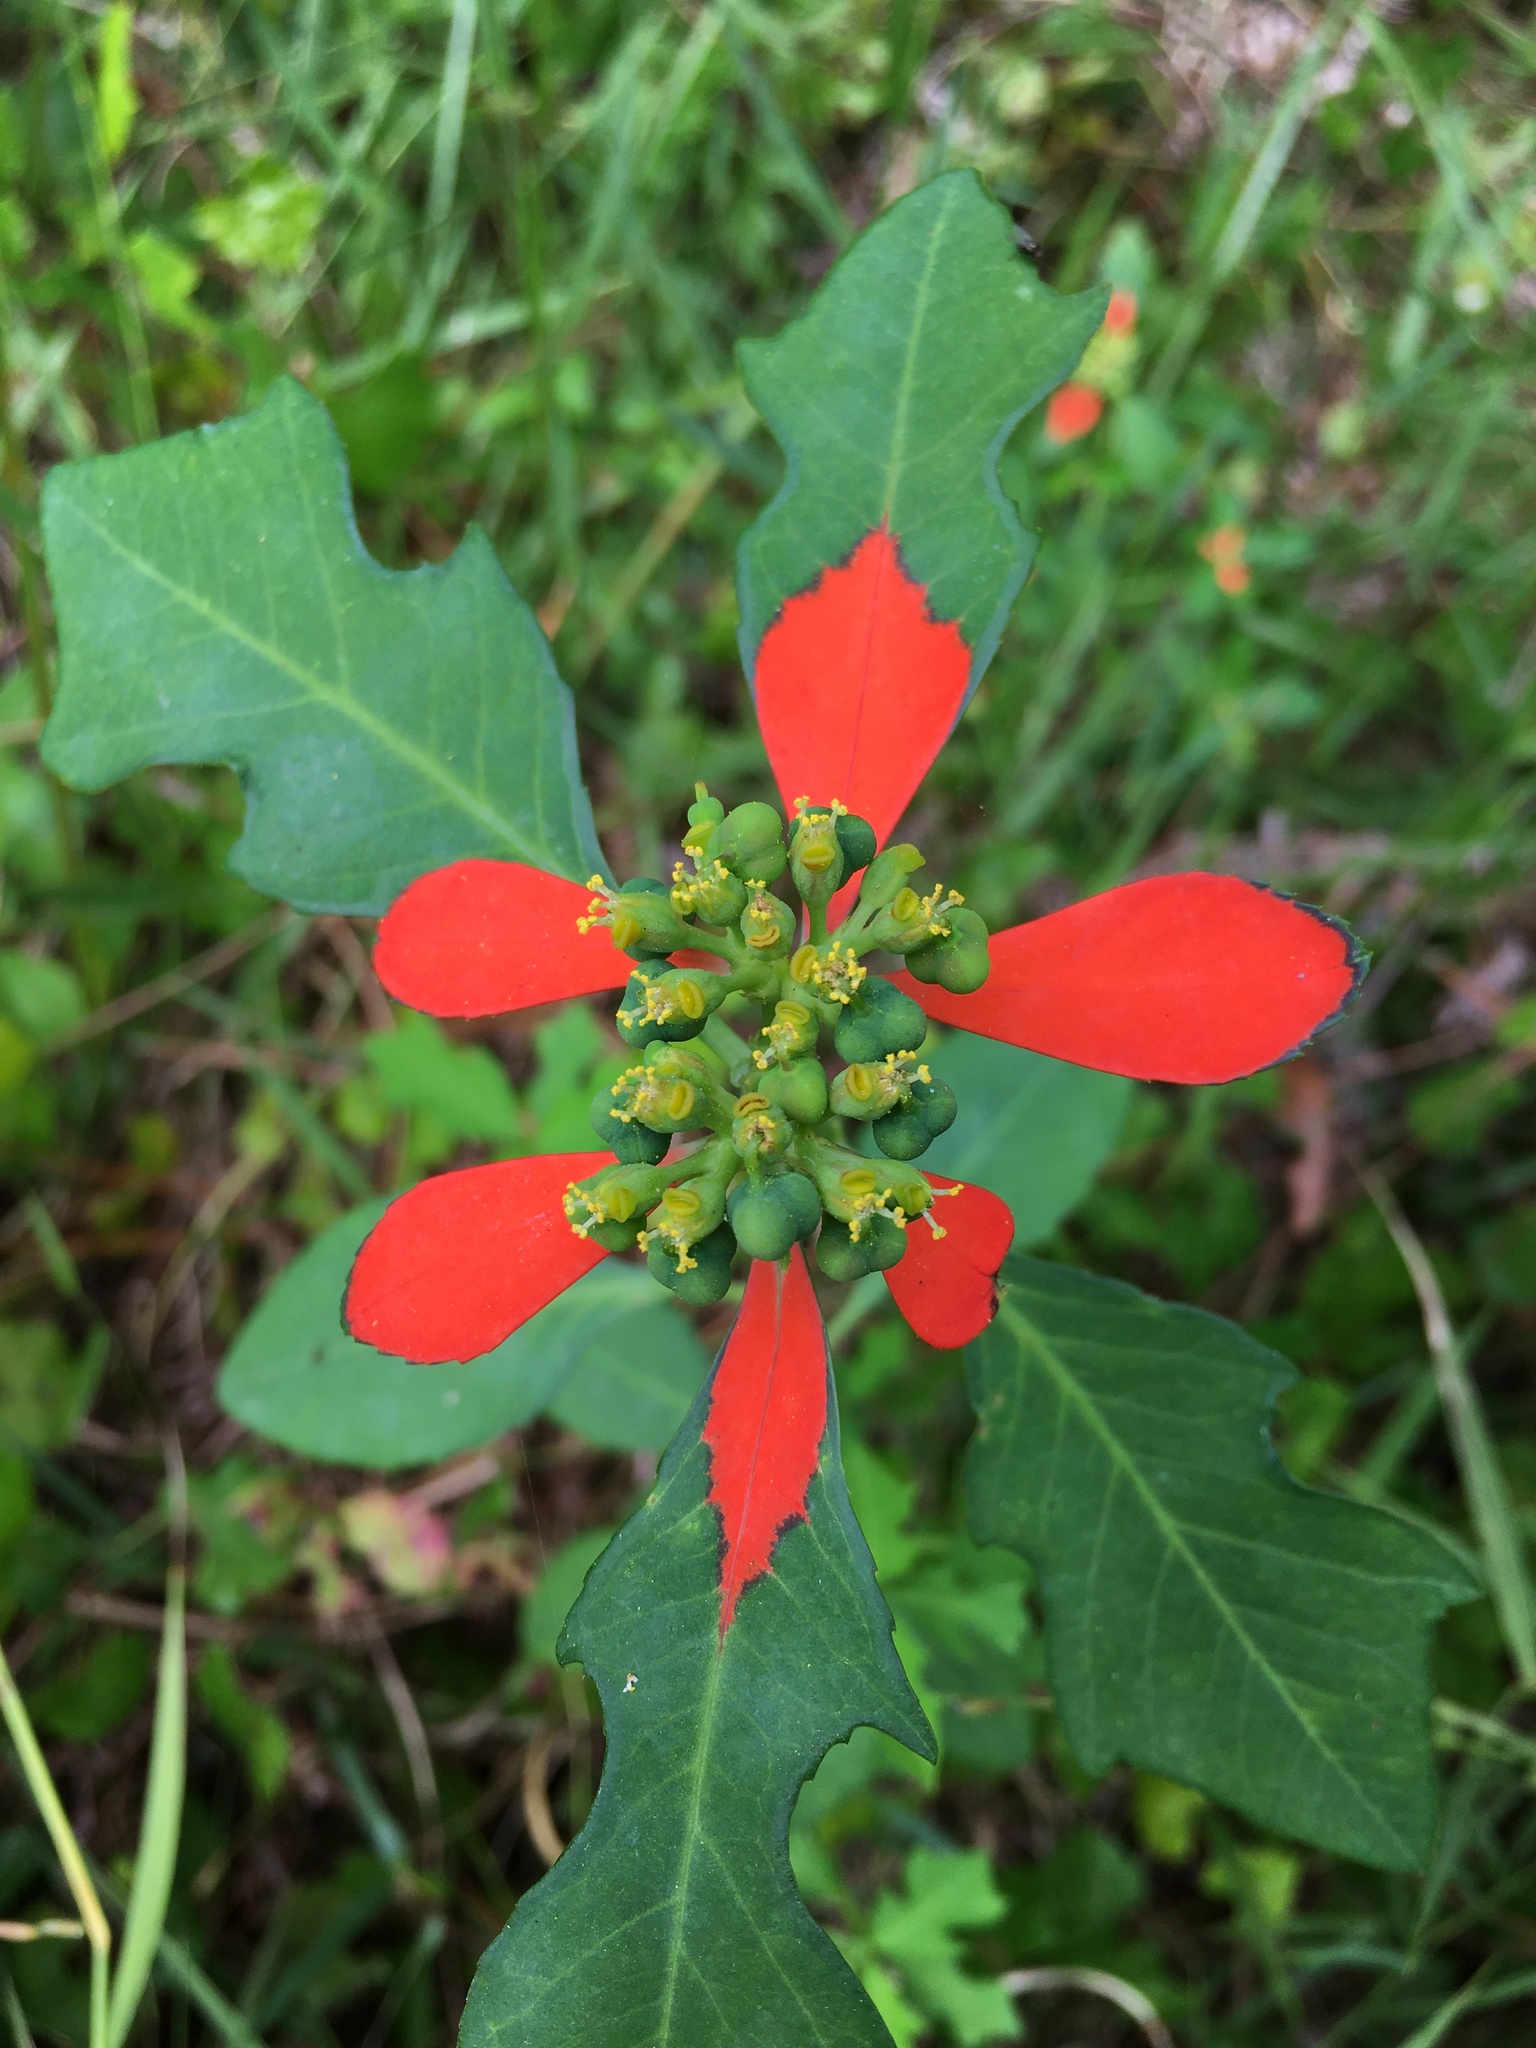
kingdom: Plantae
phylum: Tracheophyta
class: Magnoliopsida
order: Malpighiales
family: Euphorbiaceae
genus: Euphorbia
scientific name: Euphorbia heterophylla
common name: Mexican fireplant
